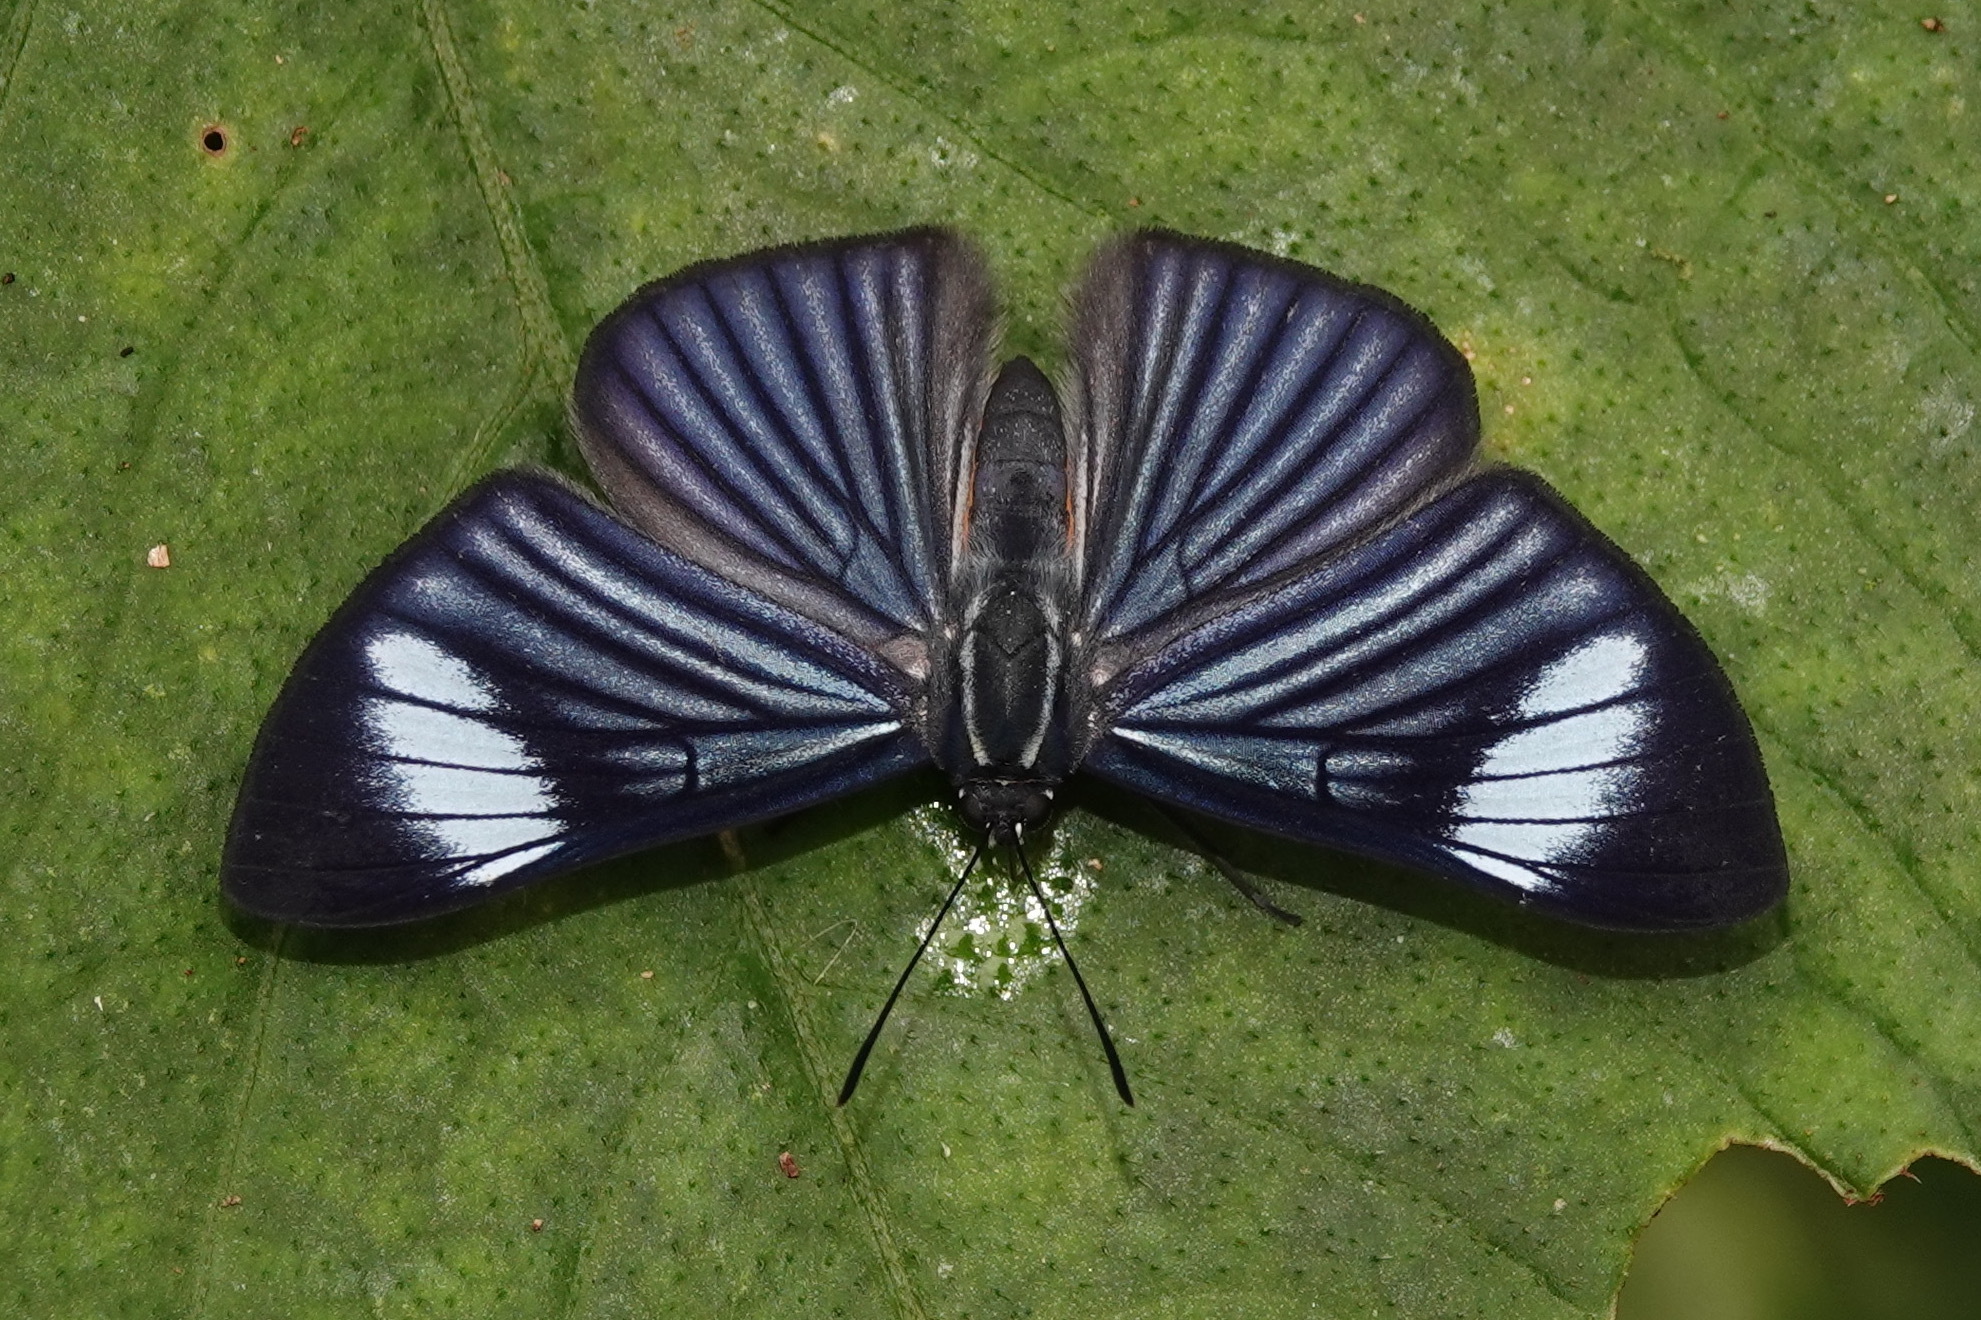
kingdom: Animalia
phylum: Arthropoda
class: Insecta
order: Lepidoptera
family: Riodinidae
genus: Brachyglenis
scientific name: Brachyglenis esthema
